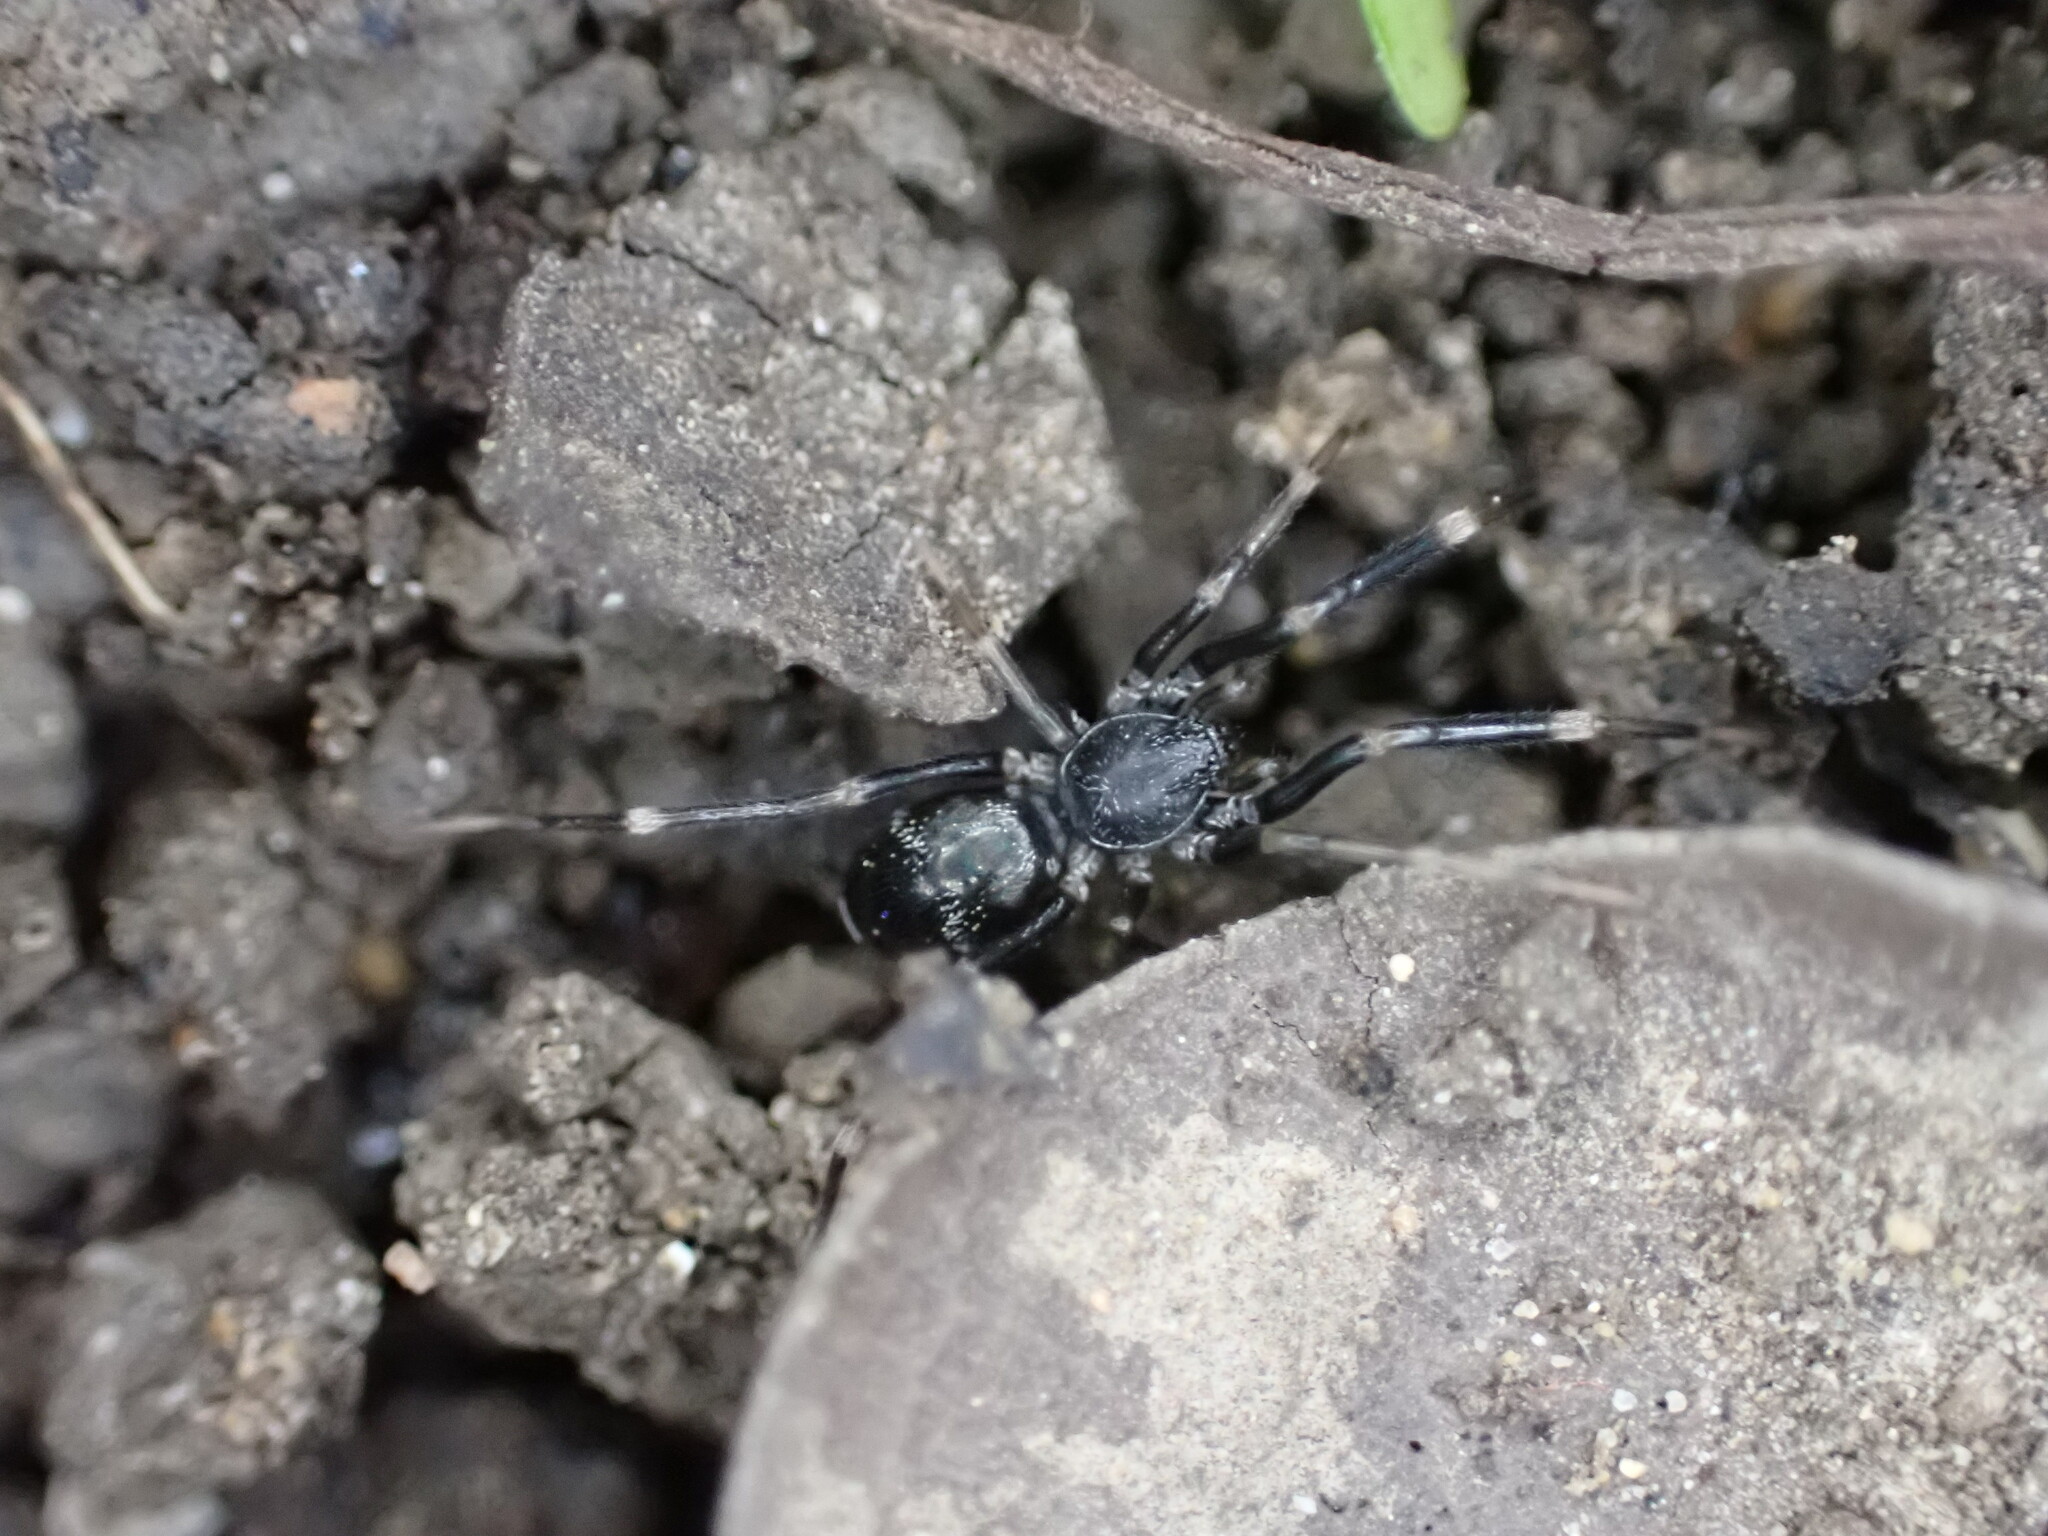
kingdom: Animalia
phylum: Arthropoda
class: Arachnida
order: Araneae
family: Phrurolithidae
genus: Liophrurillus
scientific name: Liophrurillus flavitarsis
